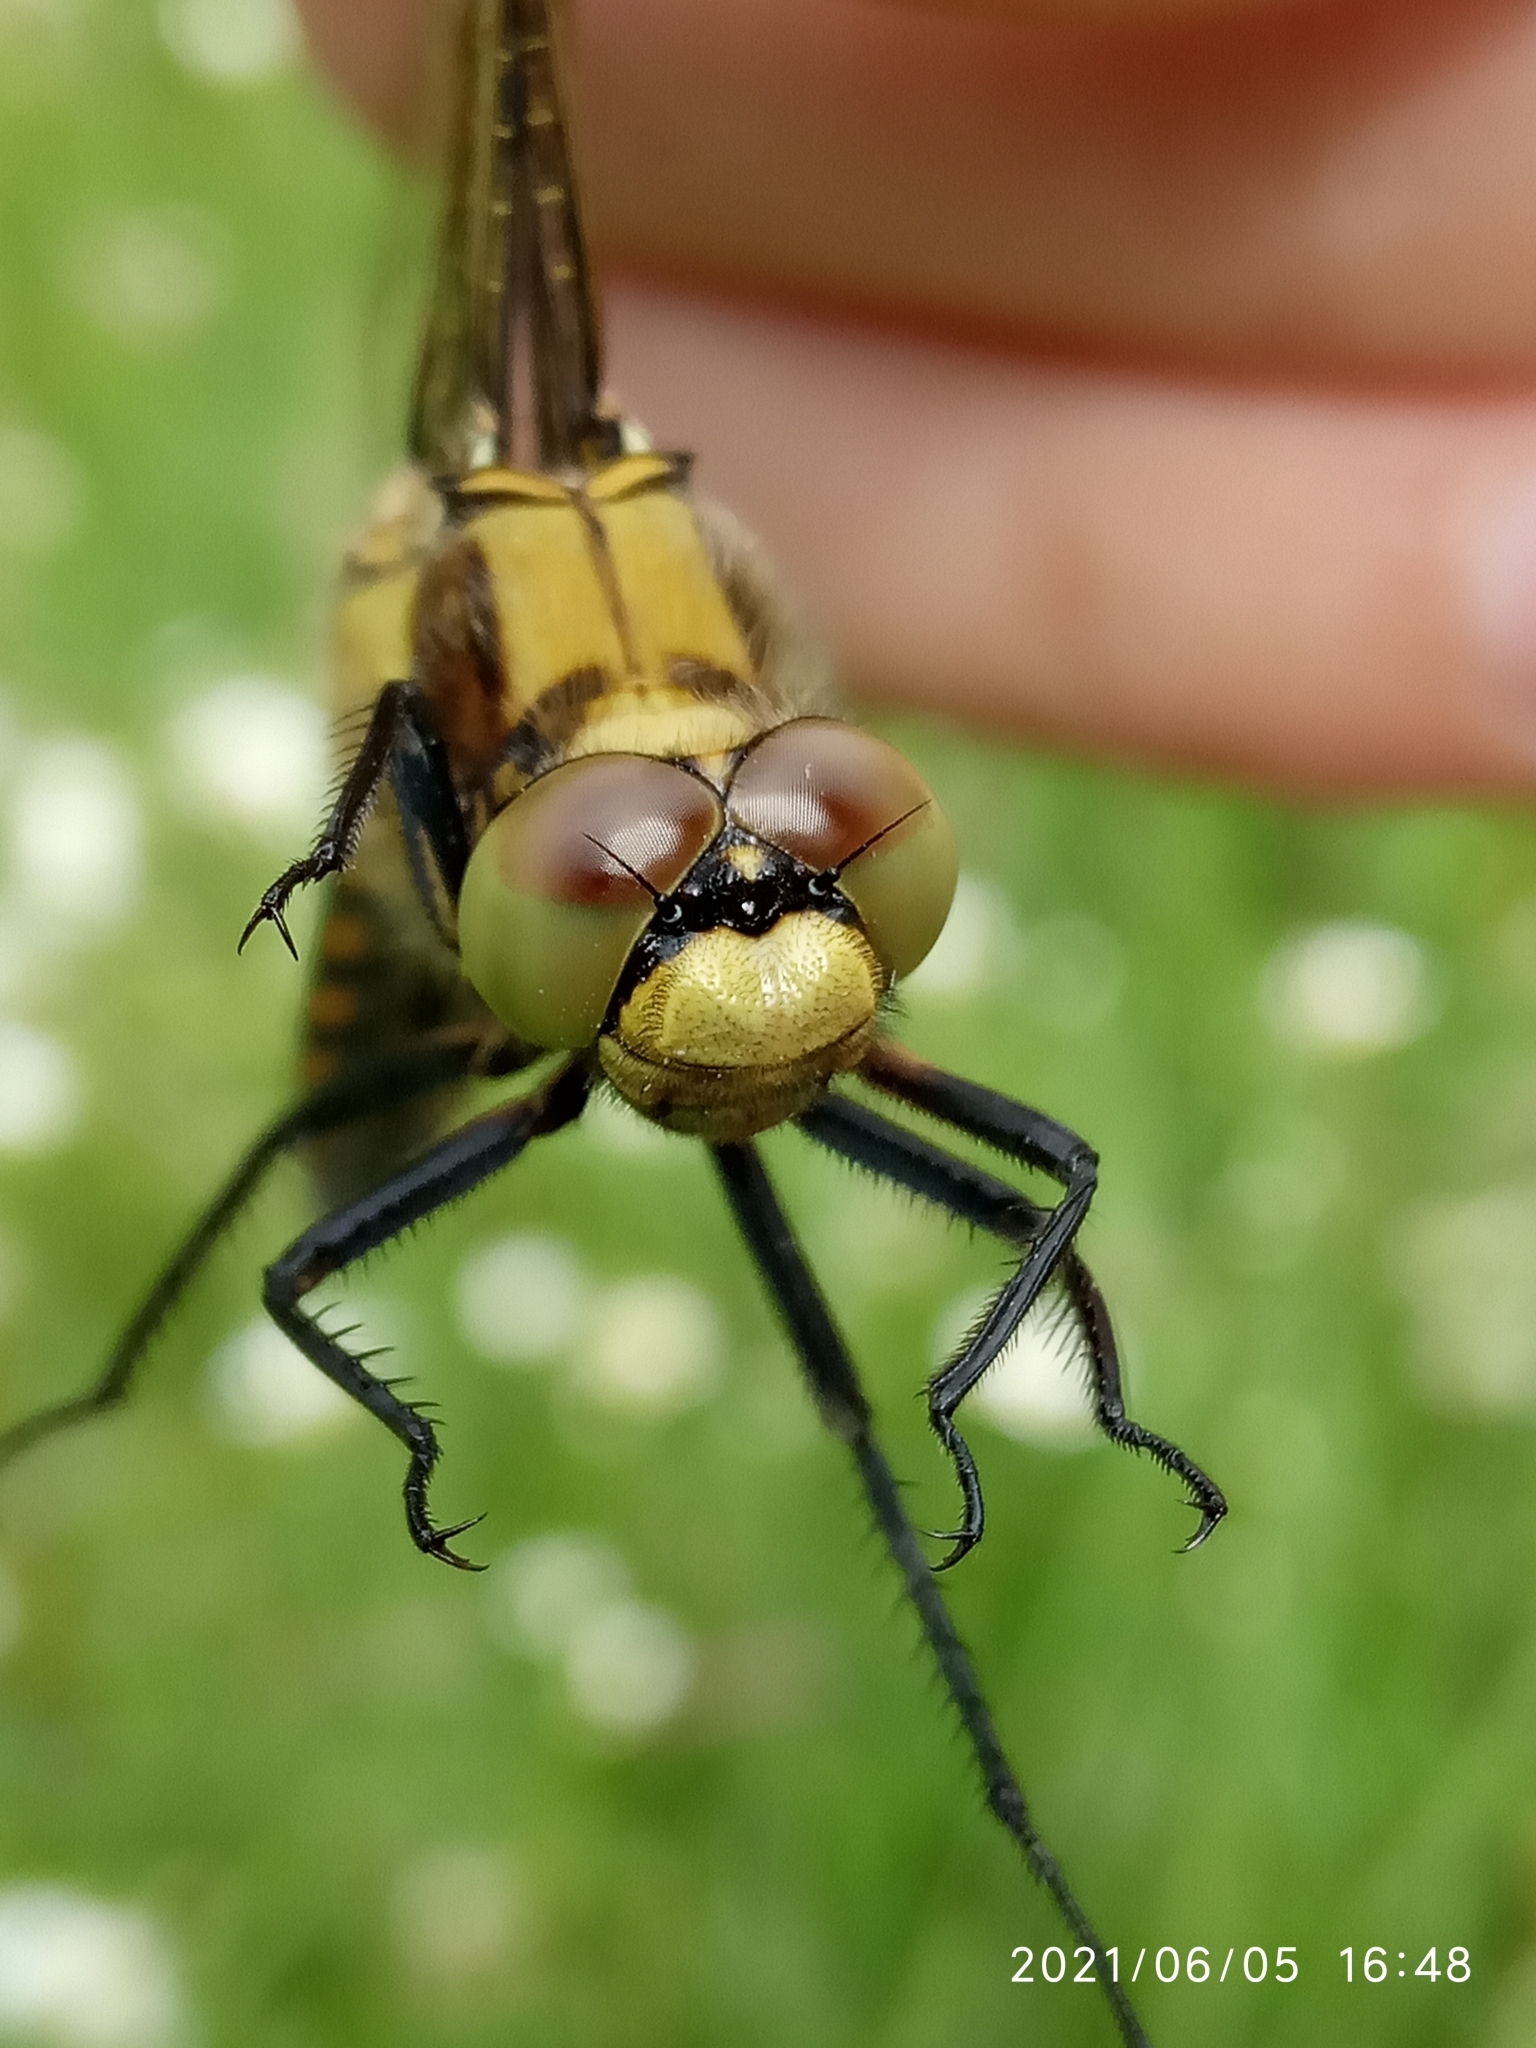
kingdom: Animalia
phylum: Arthropoda
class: Insecta
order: Odonata
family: Libellulidae
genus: Orthetrum
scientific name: Orthetrum cancellatum
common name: Black-tailed skimmer
